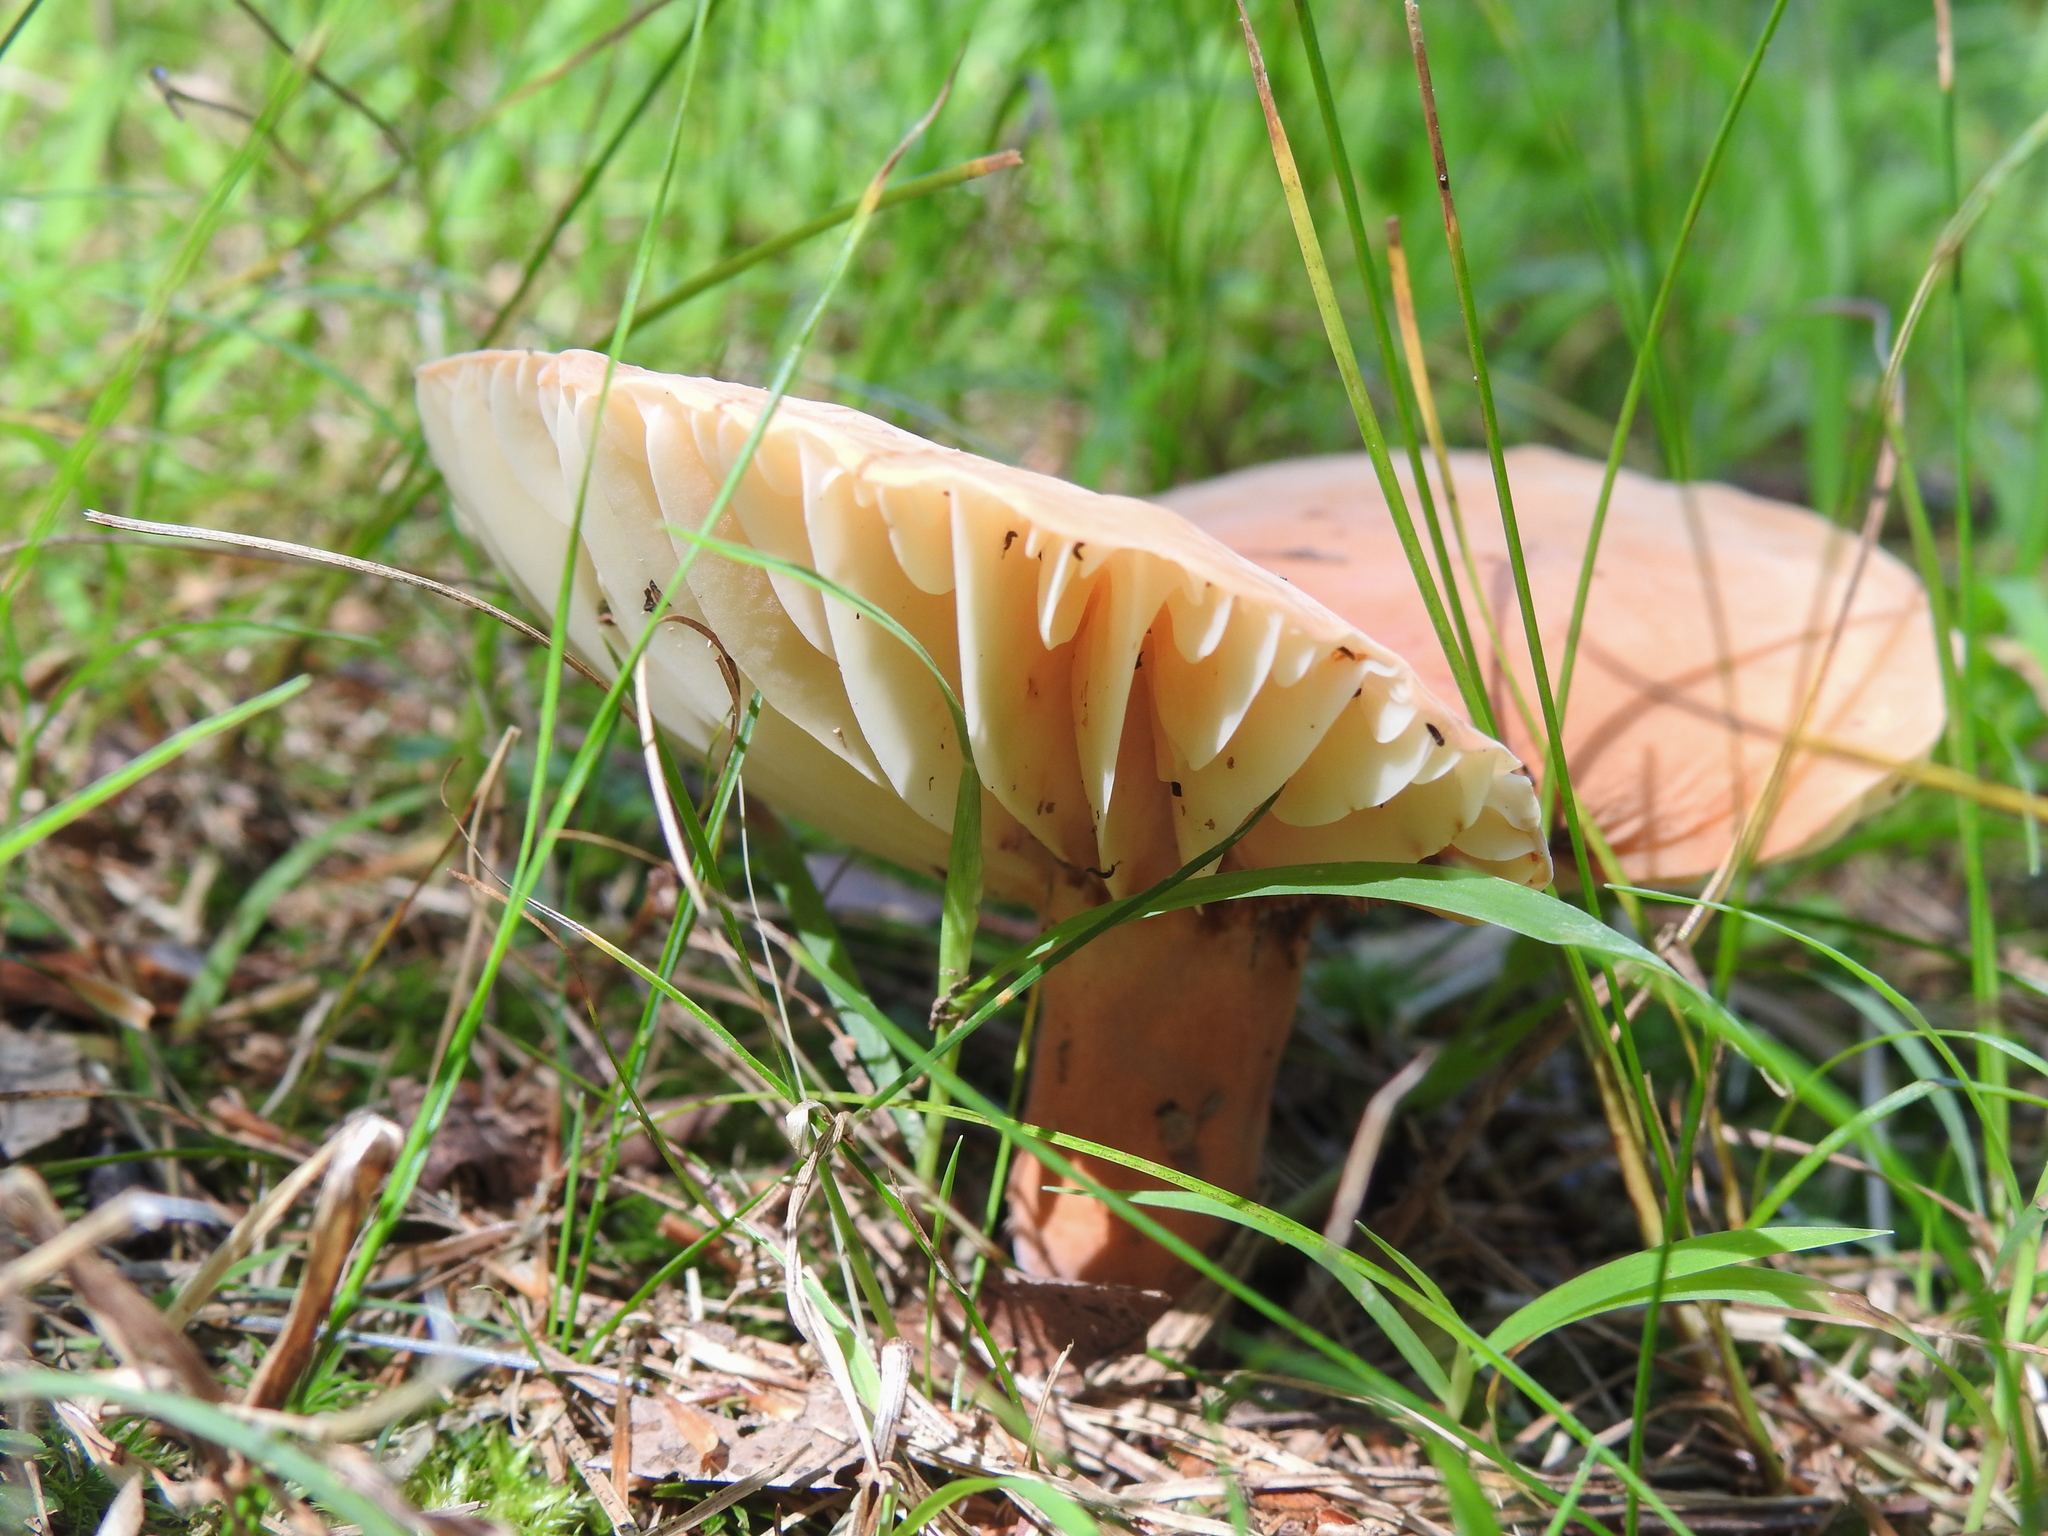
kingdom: Fungi
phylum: Basidiomycota
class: Agaricomycetes
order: Russulales
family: Russulaceae
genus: Lactarius
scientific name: Lactarius hygrophoroides
